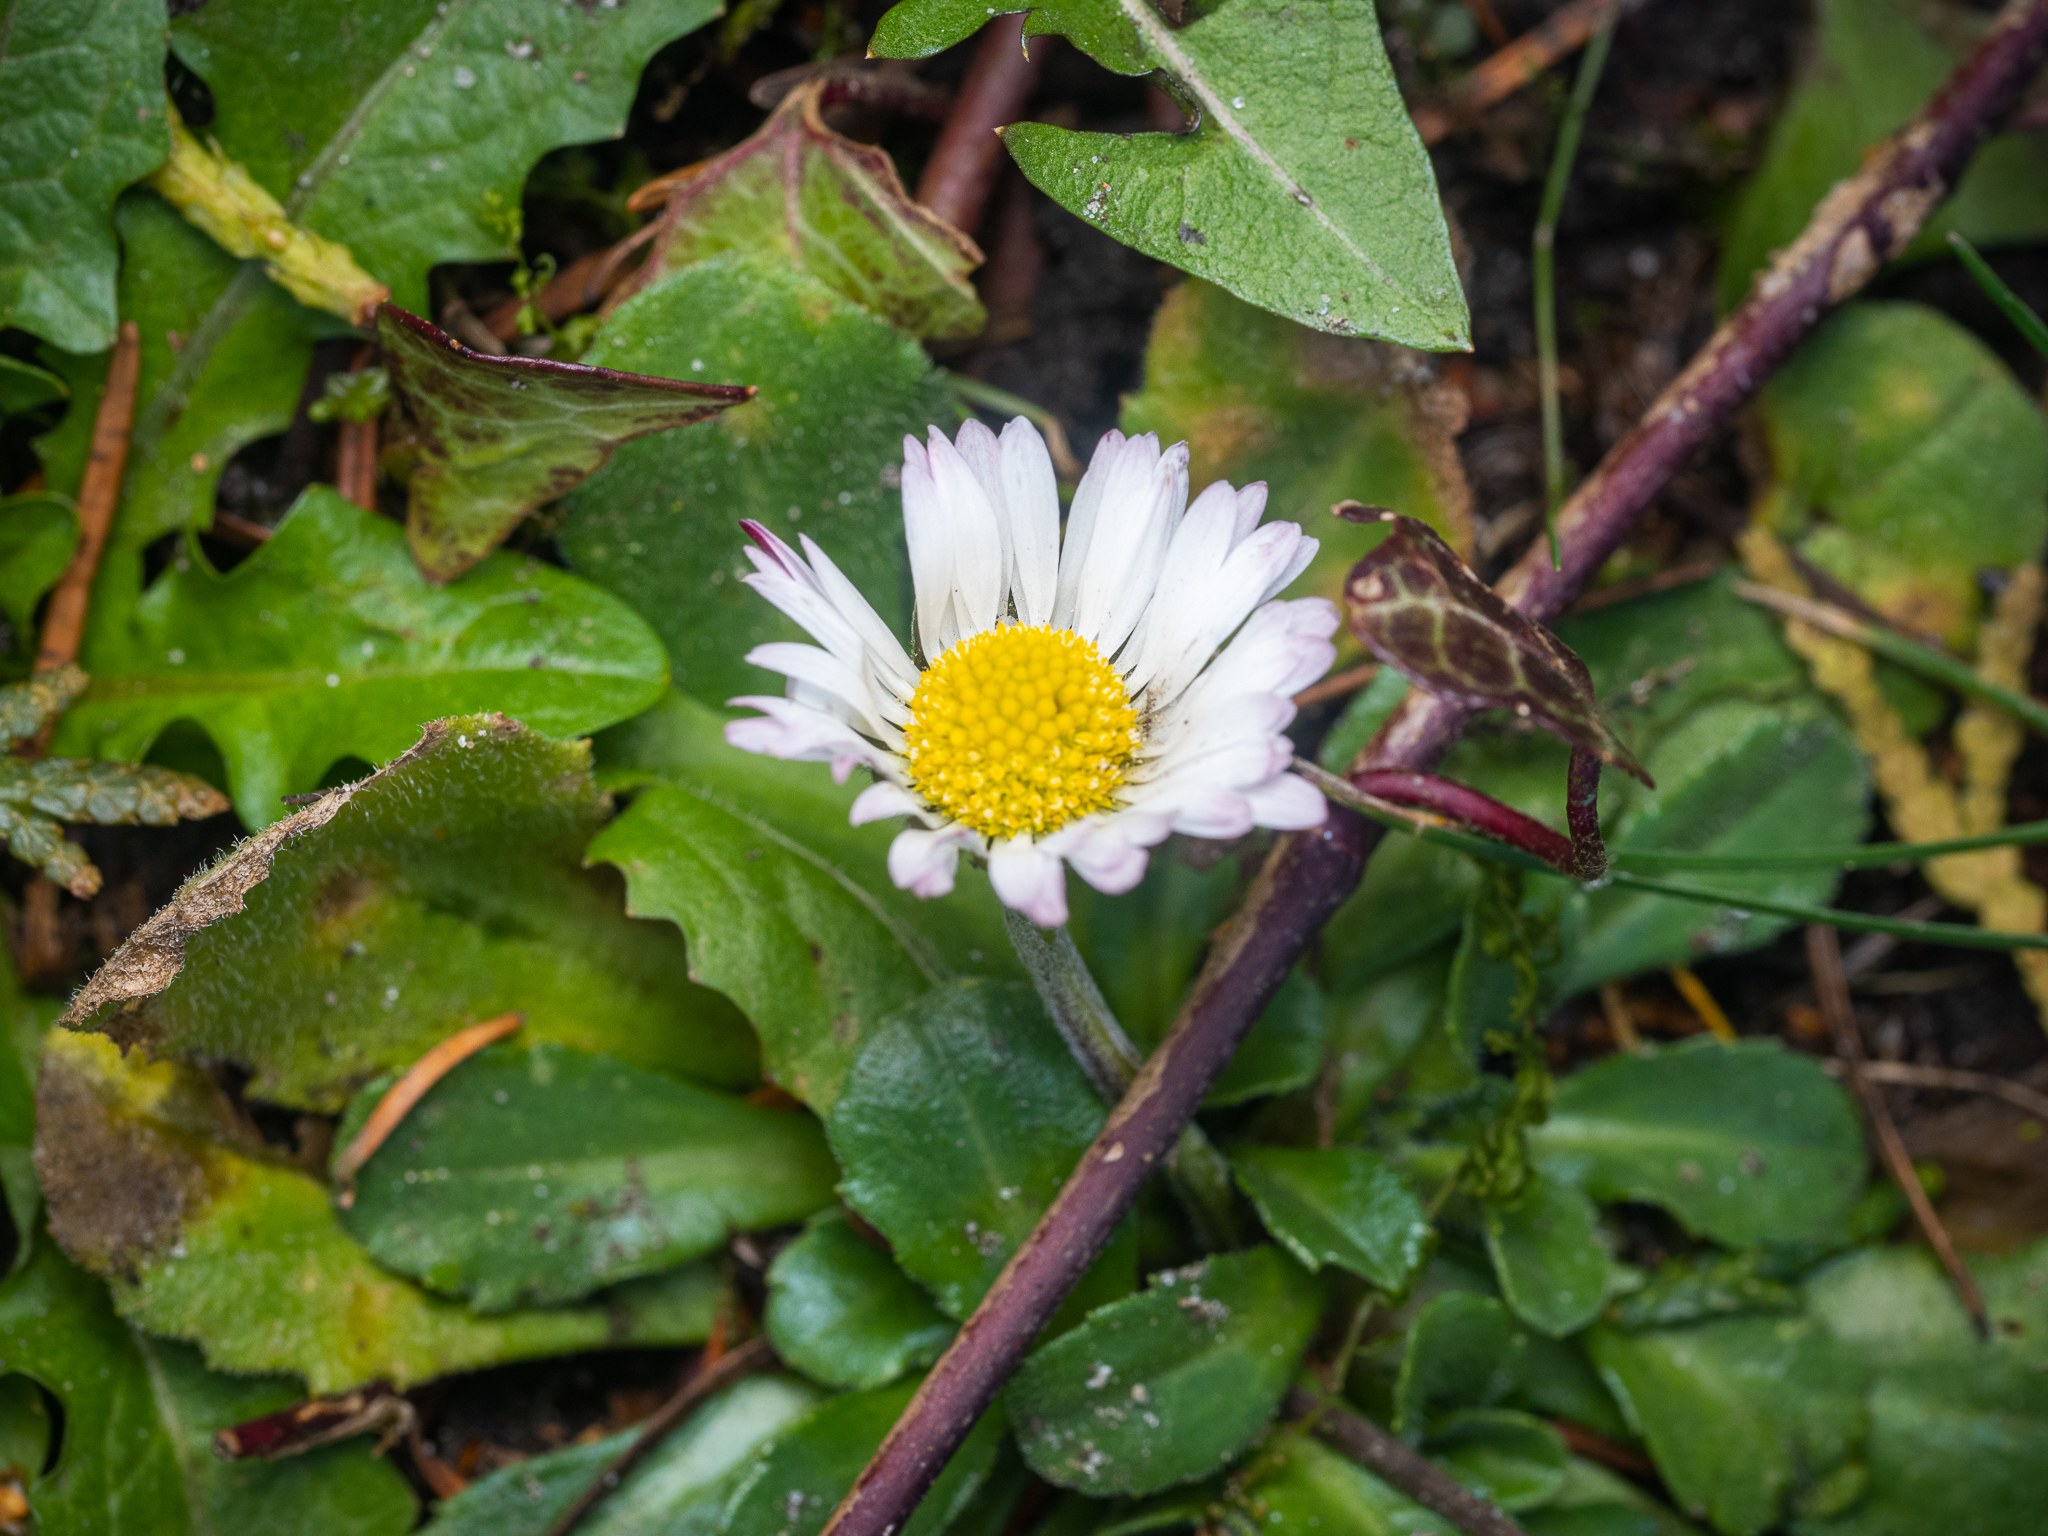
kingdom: Plantae
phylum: Tracheophyta
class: Magnoliopsida
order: Asterales
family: Asteraceae
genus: Bellis
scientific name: Bellis perennis
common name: Lawndaisy
